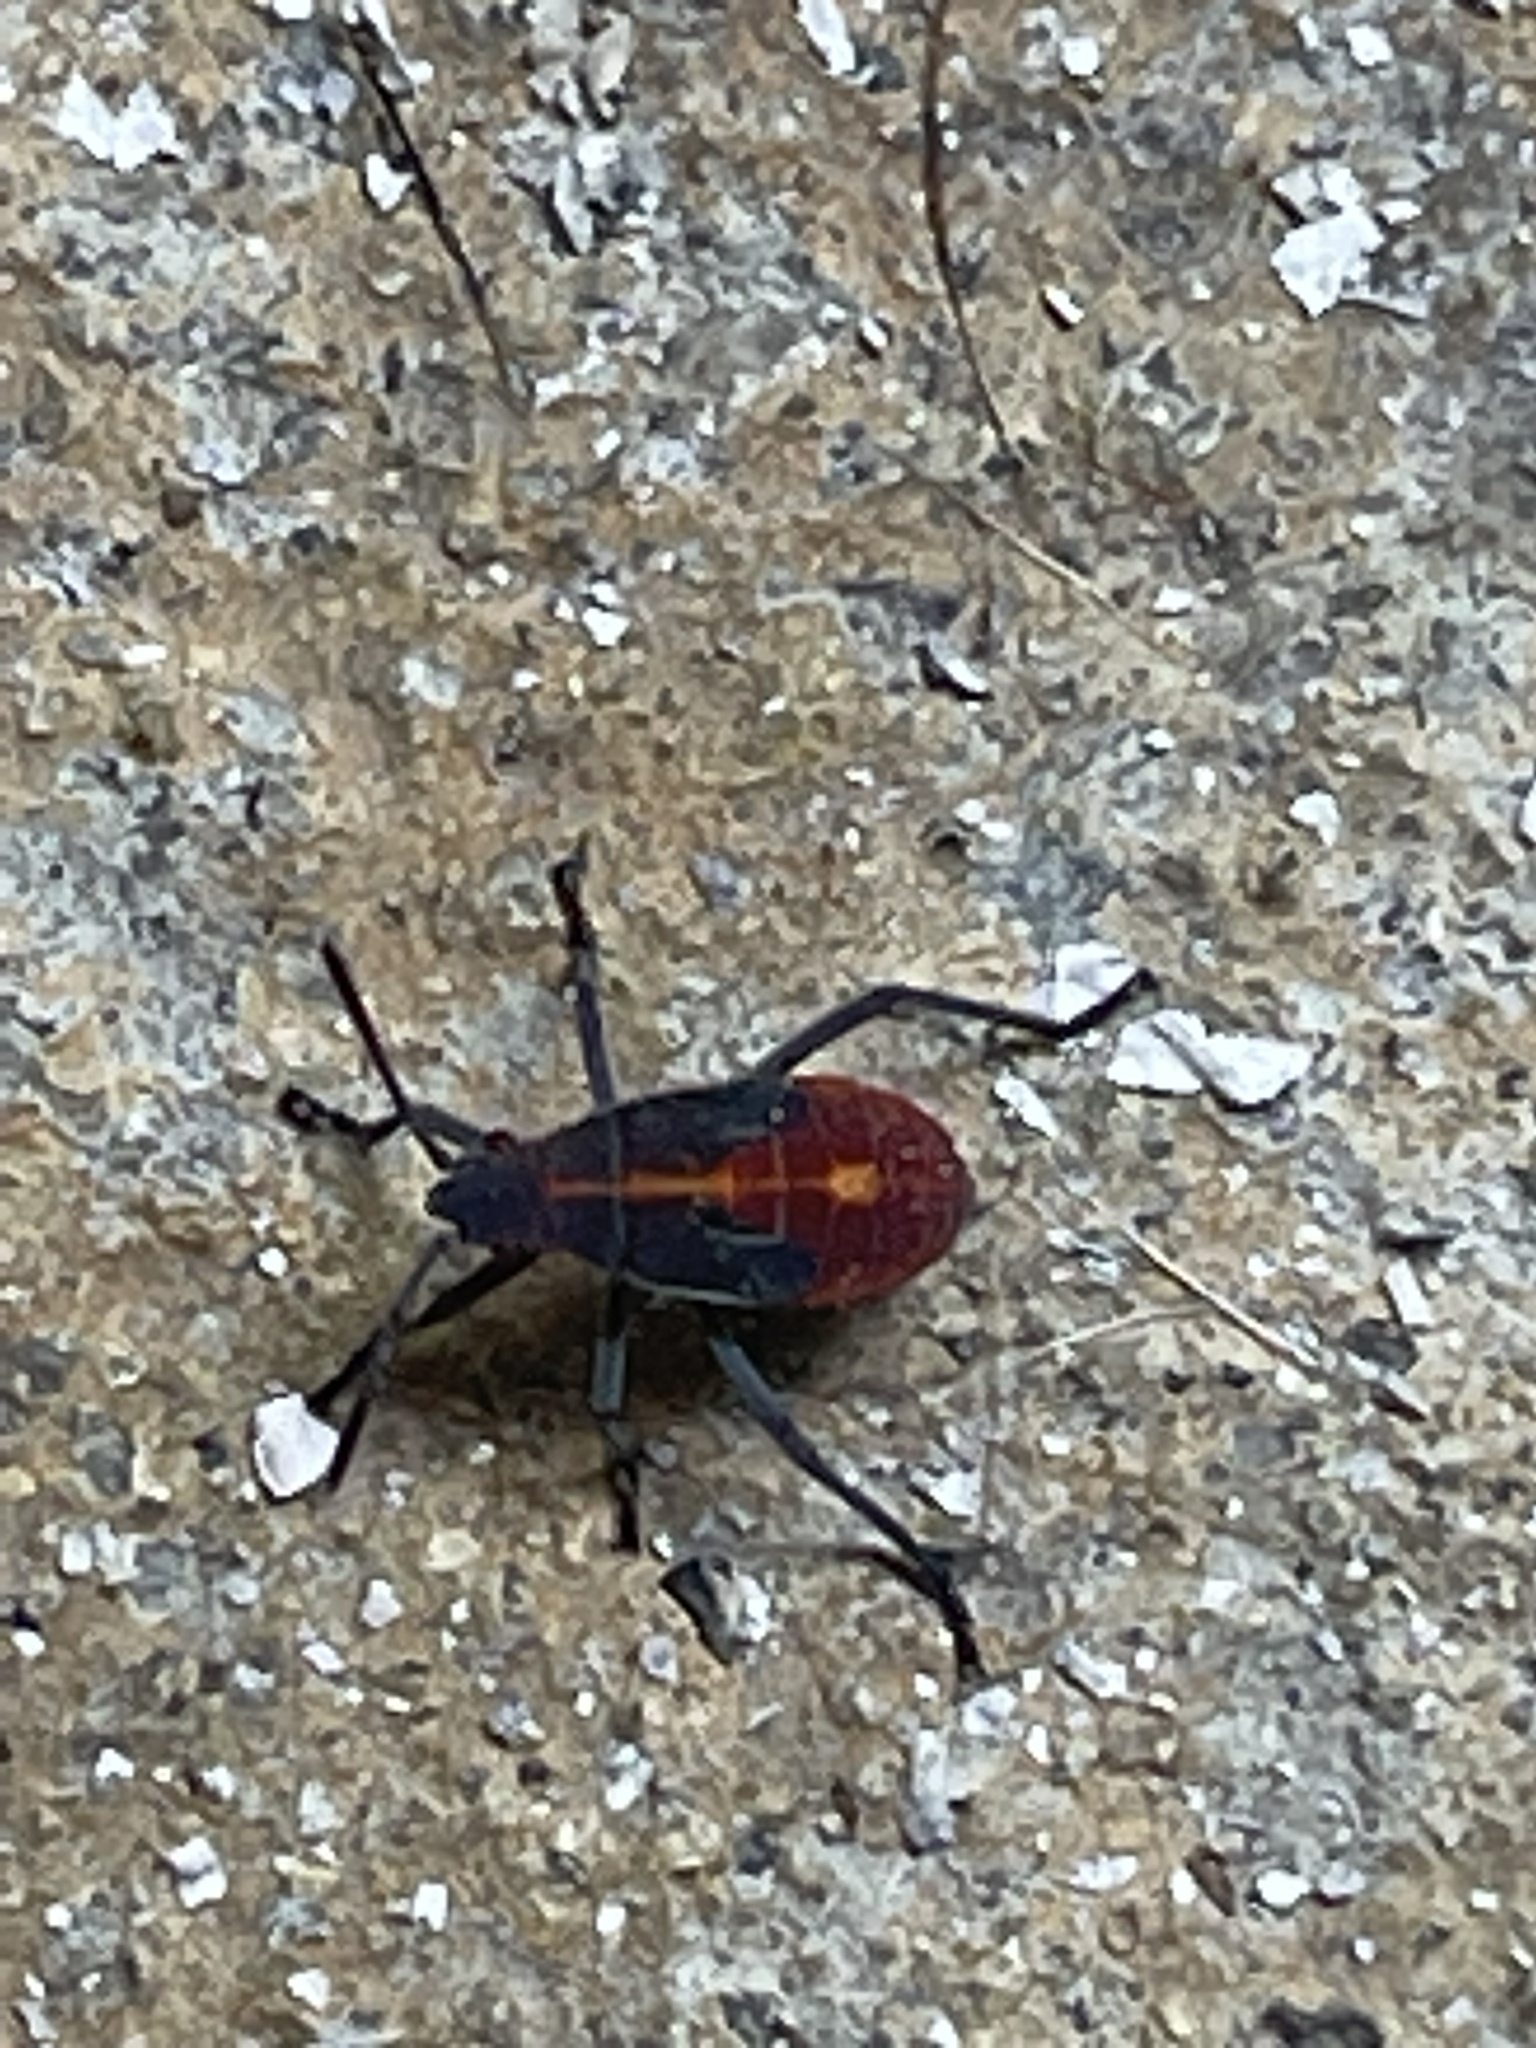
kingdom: Animalia
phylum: Arthropoda
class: Insecta
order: Hemiptera
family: Rhopalidae
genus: Boisea
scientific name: Boisea trivittata
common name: Boxelder bug
